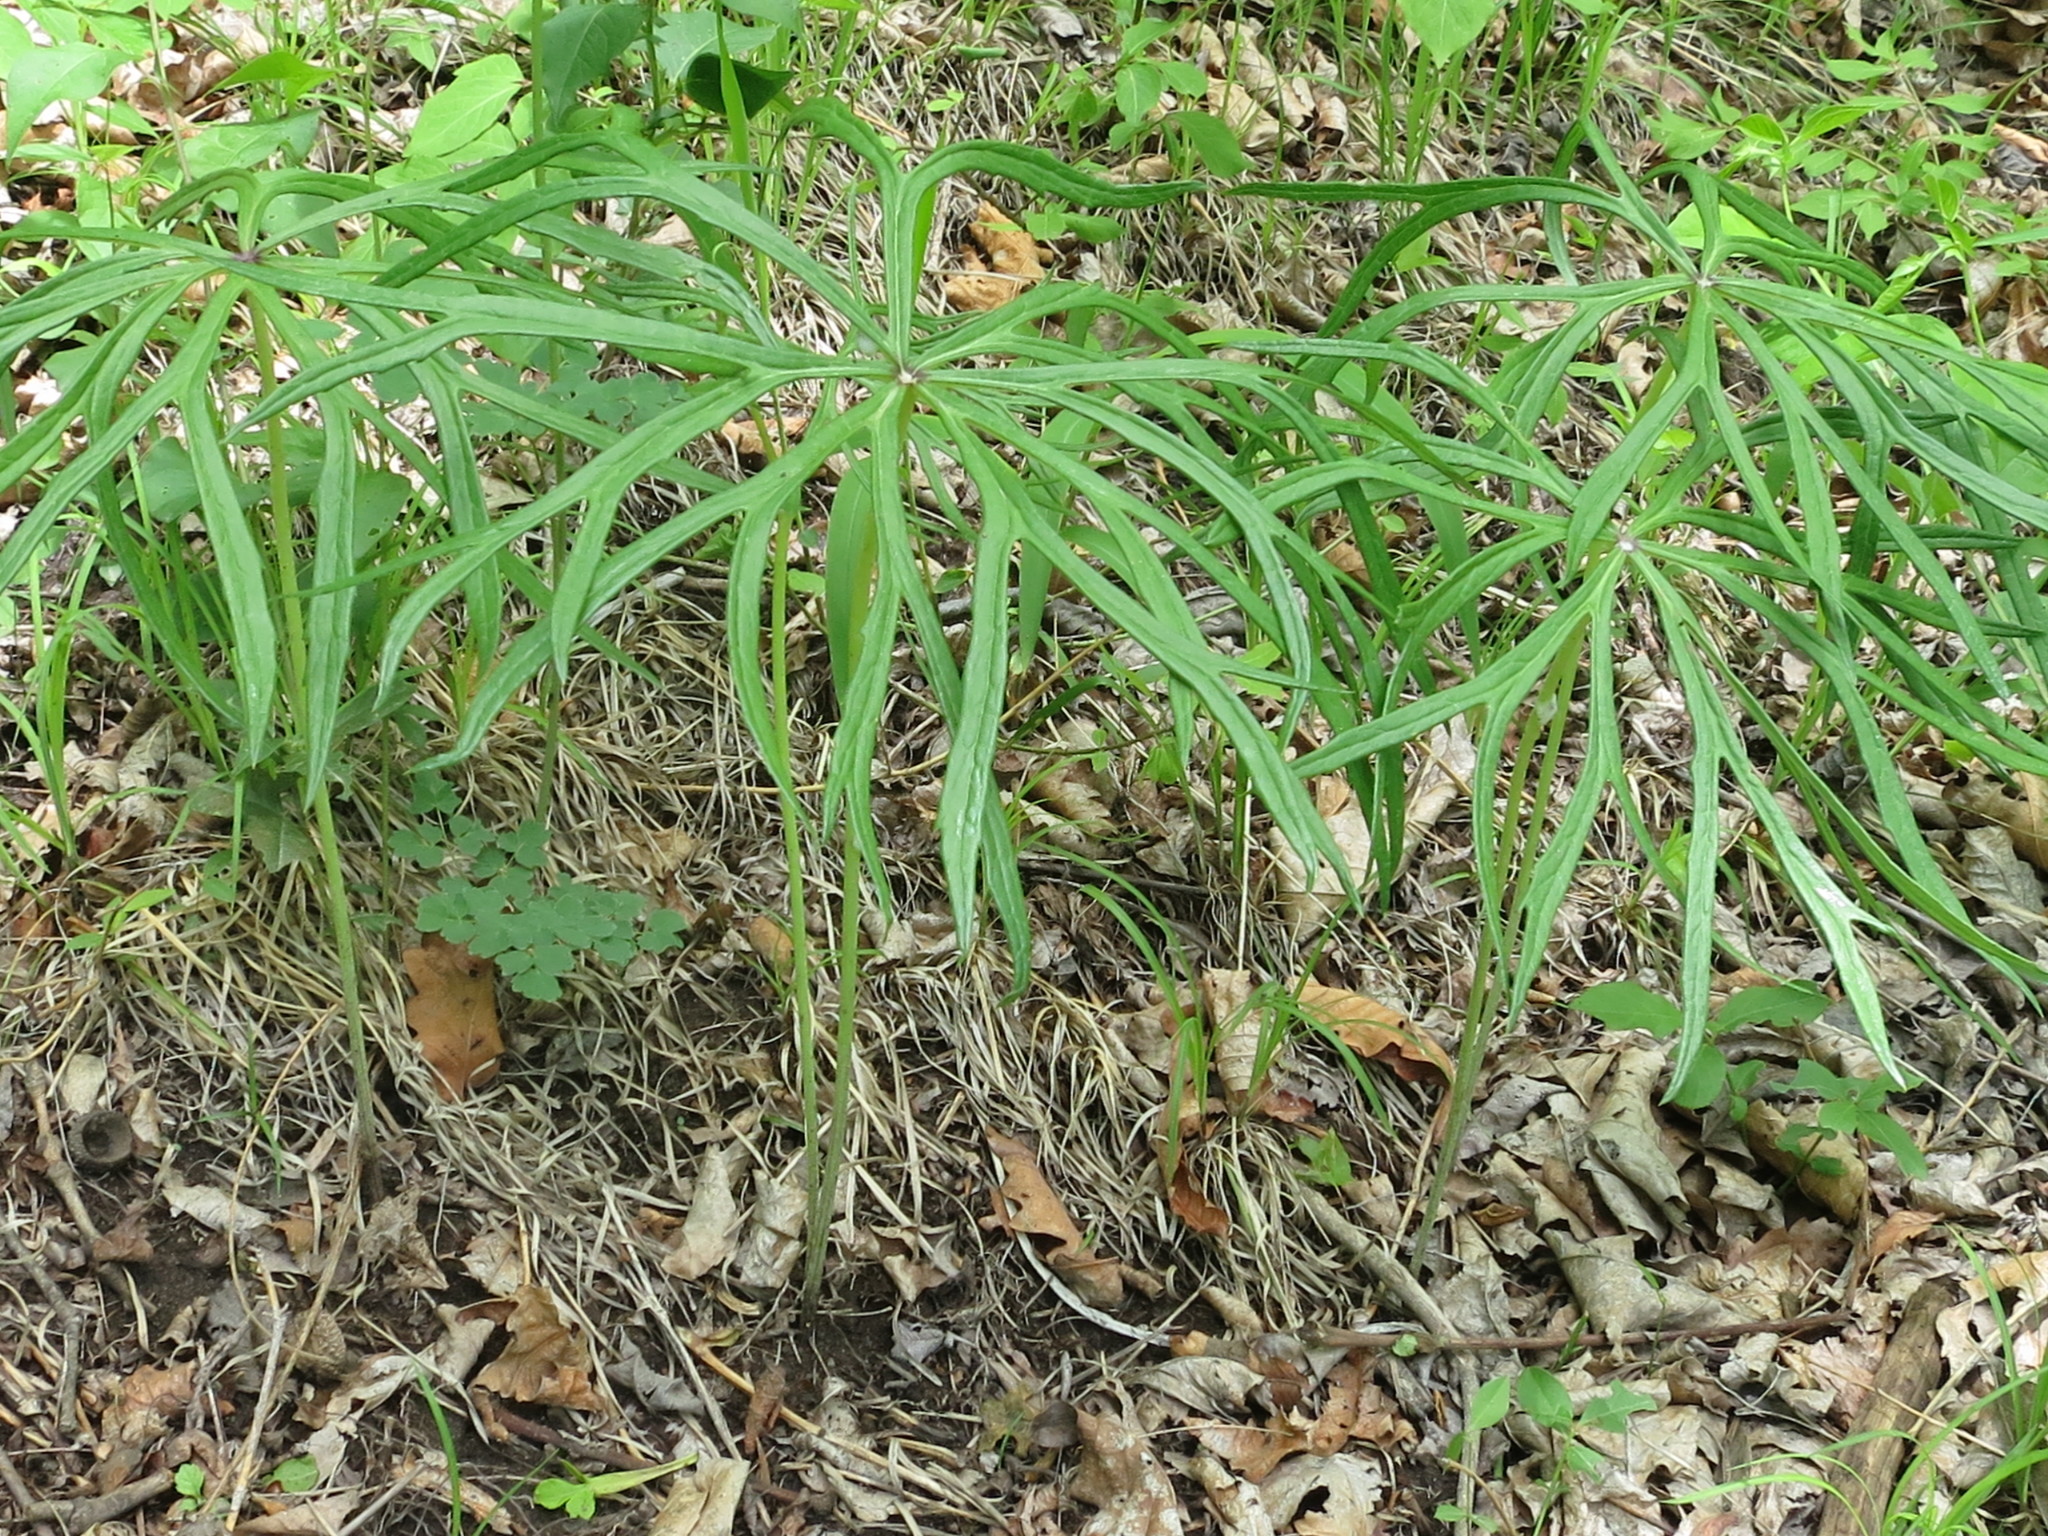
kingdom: Plantae
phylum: Tracheophyta
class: Magnoliopsida
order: Asterales
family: Asteraceae
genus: Syneilesis
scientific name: Syneilesis aconitifolia
